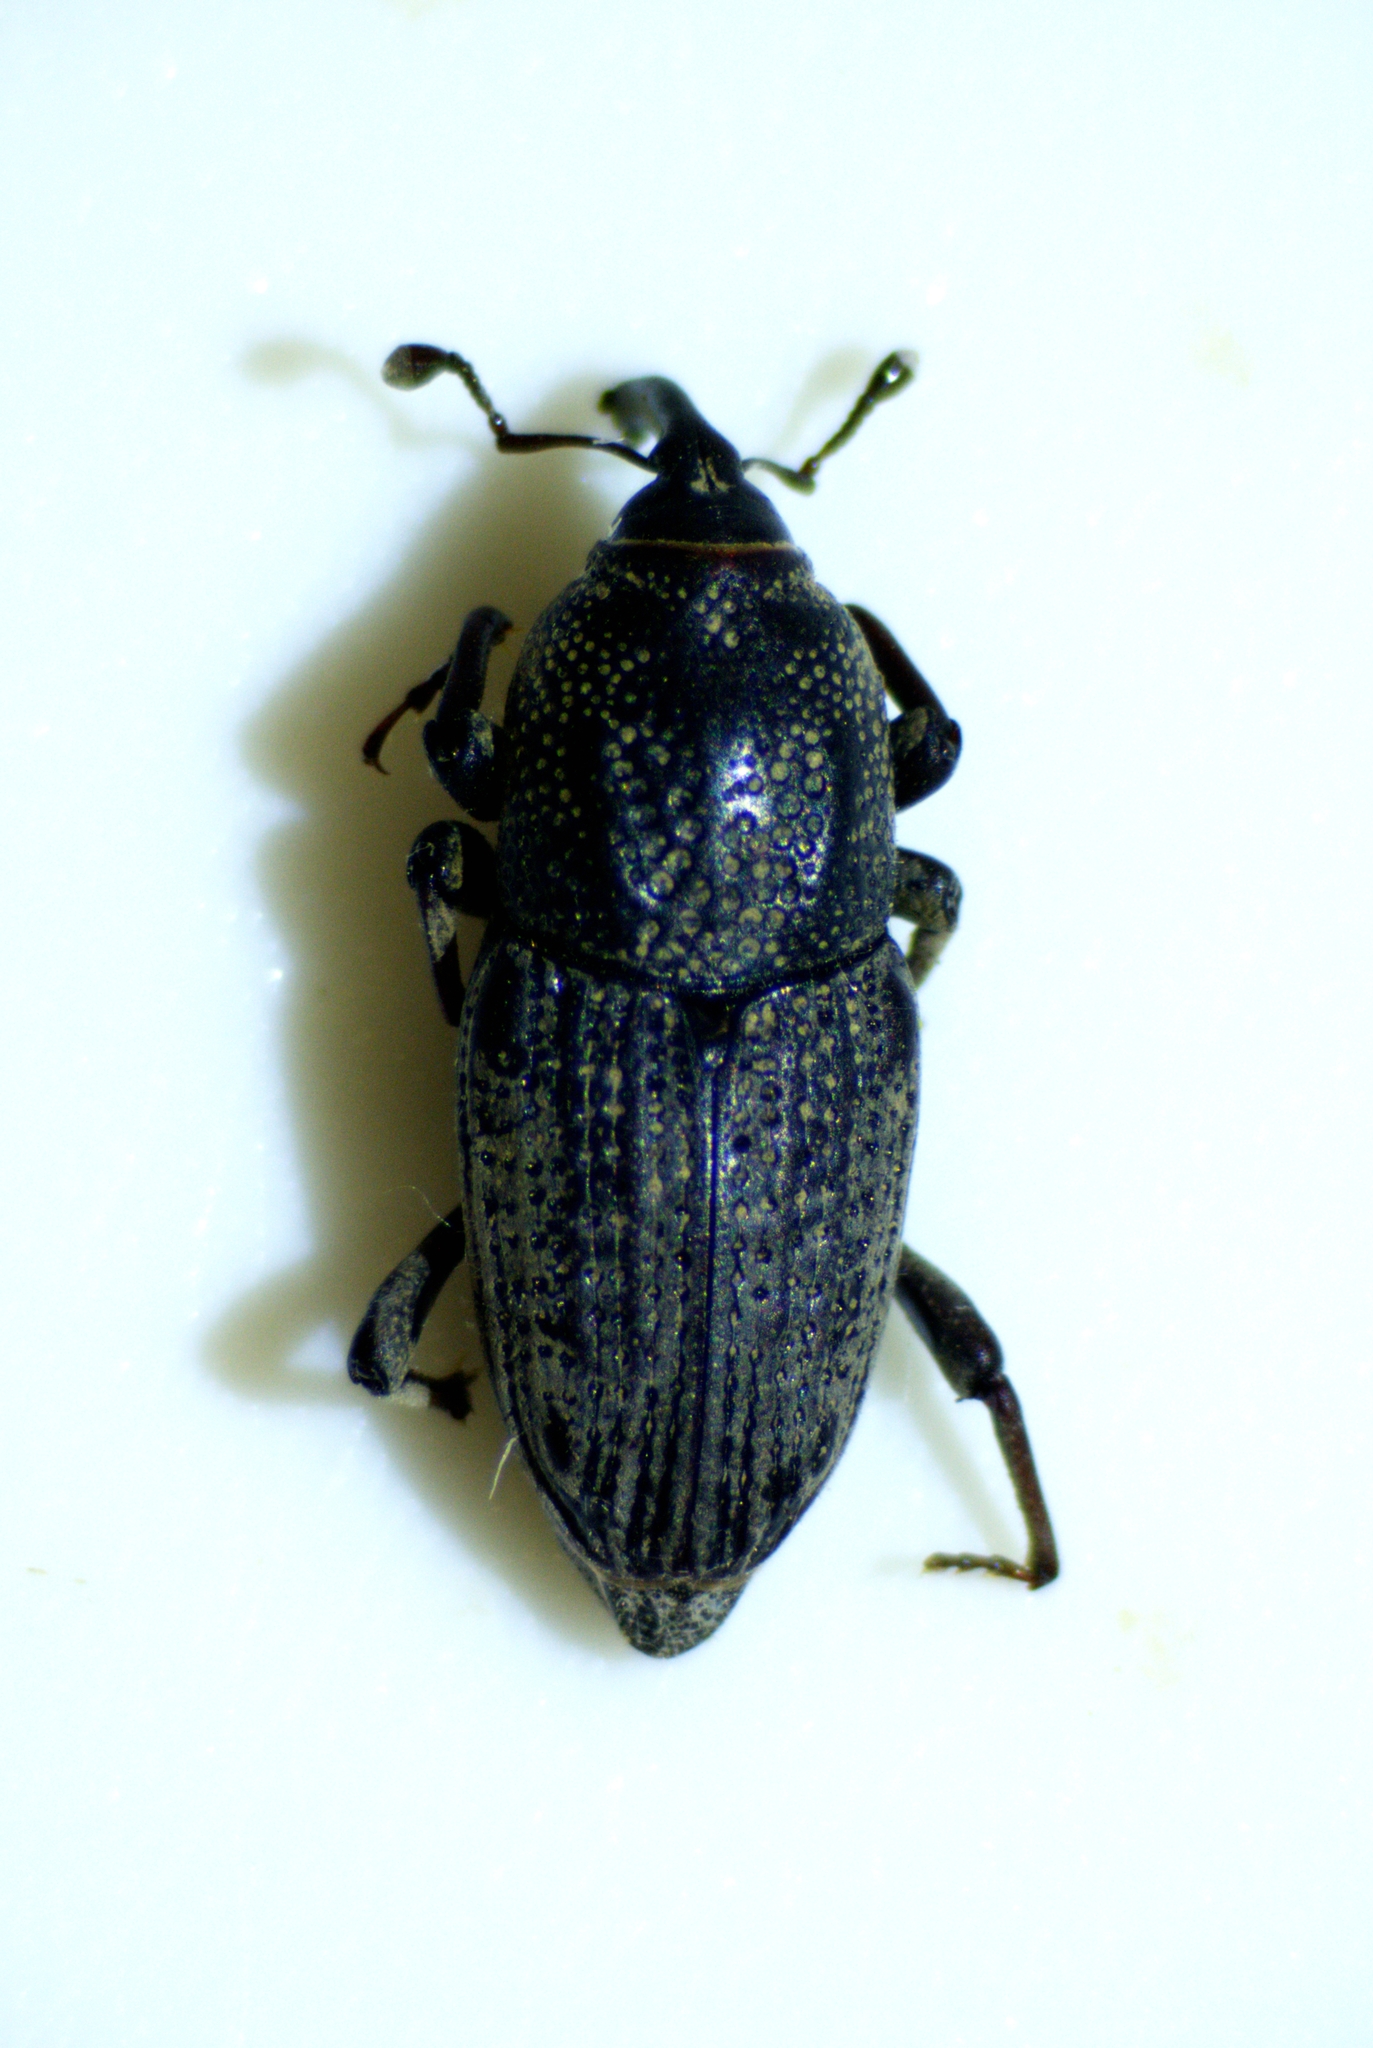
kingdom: Animalia
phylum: Arthropoda
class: Insecta
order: Coleoptera
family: Dryophthoridae
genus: Sphenophorus
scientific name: Sphenophorus venatus
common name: Hunting billbug
